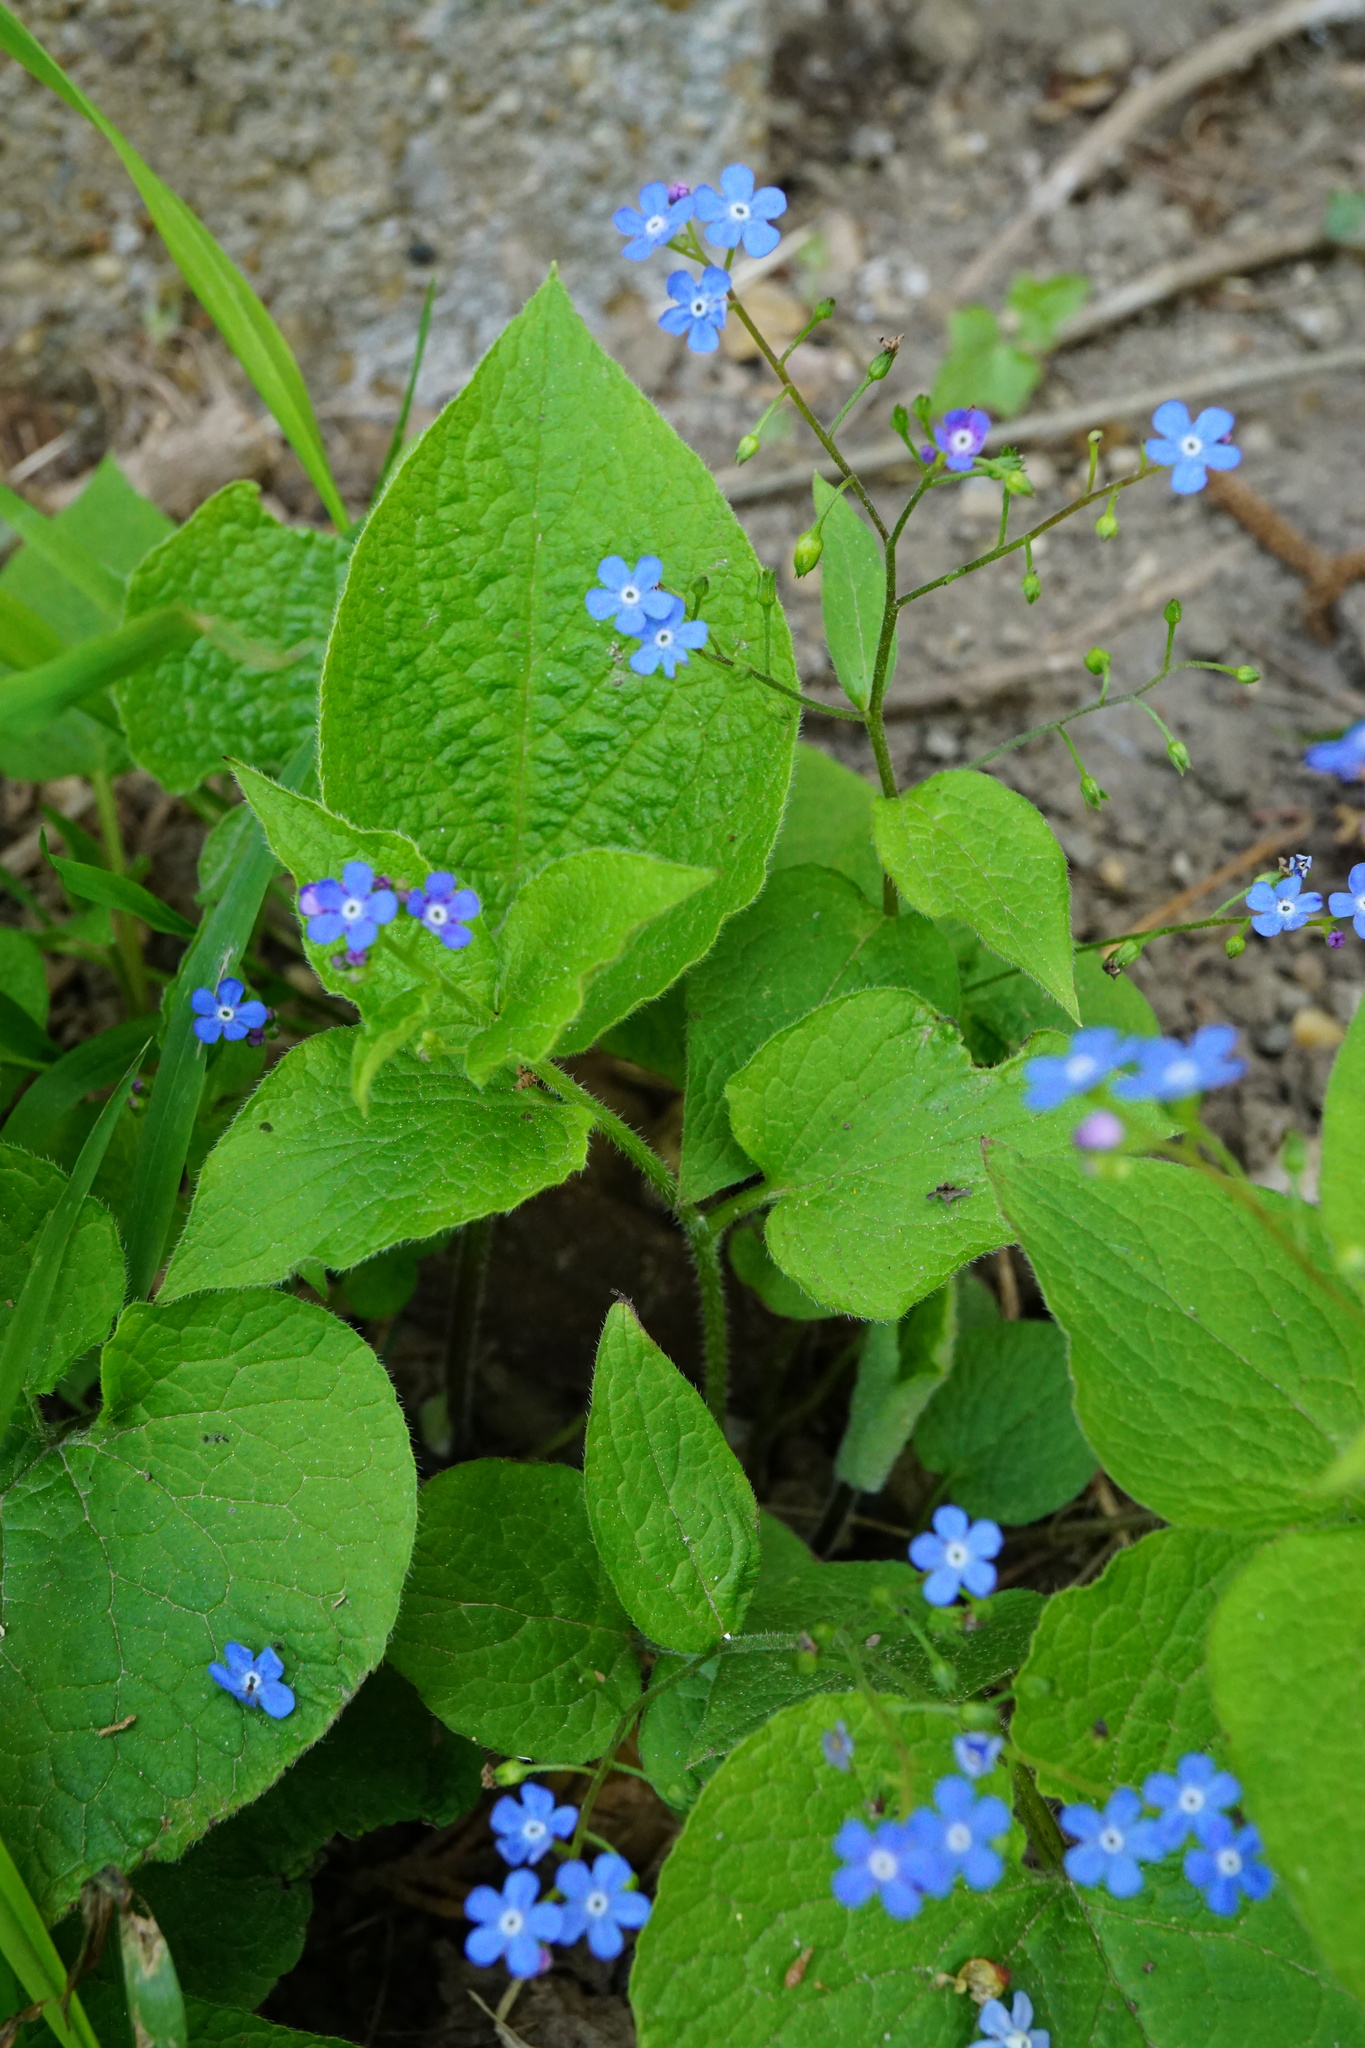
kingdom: Plantae
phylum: Tracheophyta
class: Magnoliopsida
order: Boraginales
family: Boraginaceae
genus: Brunnera
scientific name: Brunnera macrophylla
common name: Great forget-me-not
